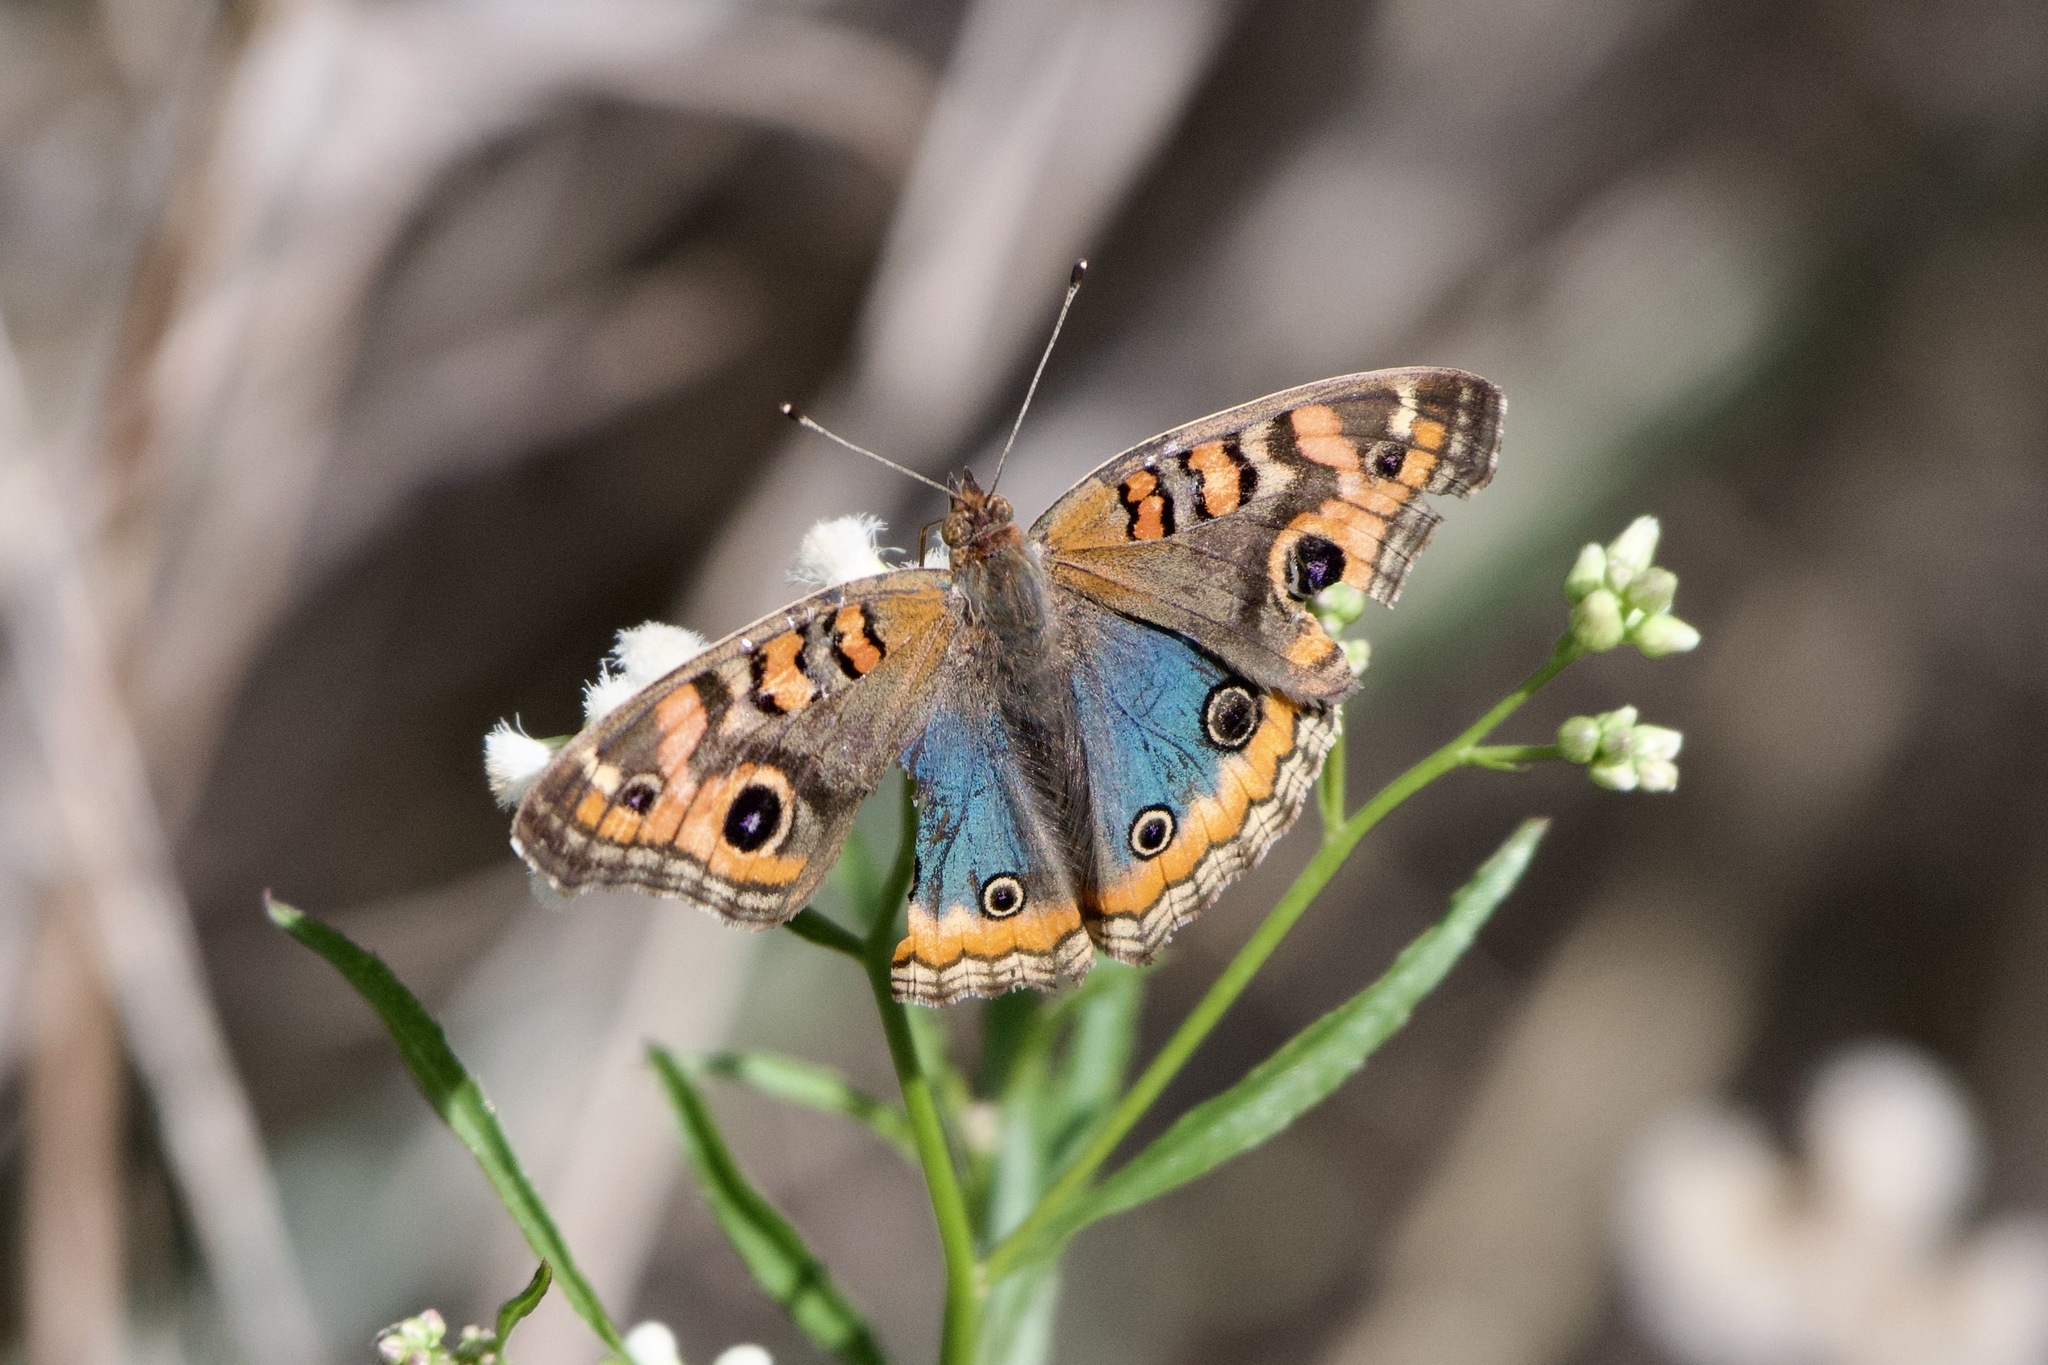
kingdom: Animalia
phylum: Arthropoda
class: Insecta
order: Lepidoptera
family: Nymphalidae
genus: Junonia
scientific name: Junonia lavinia
